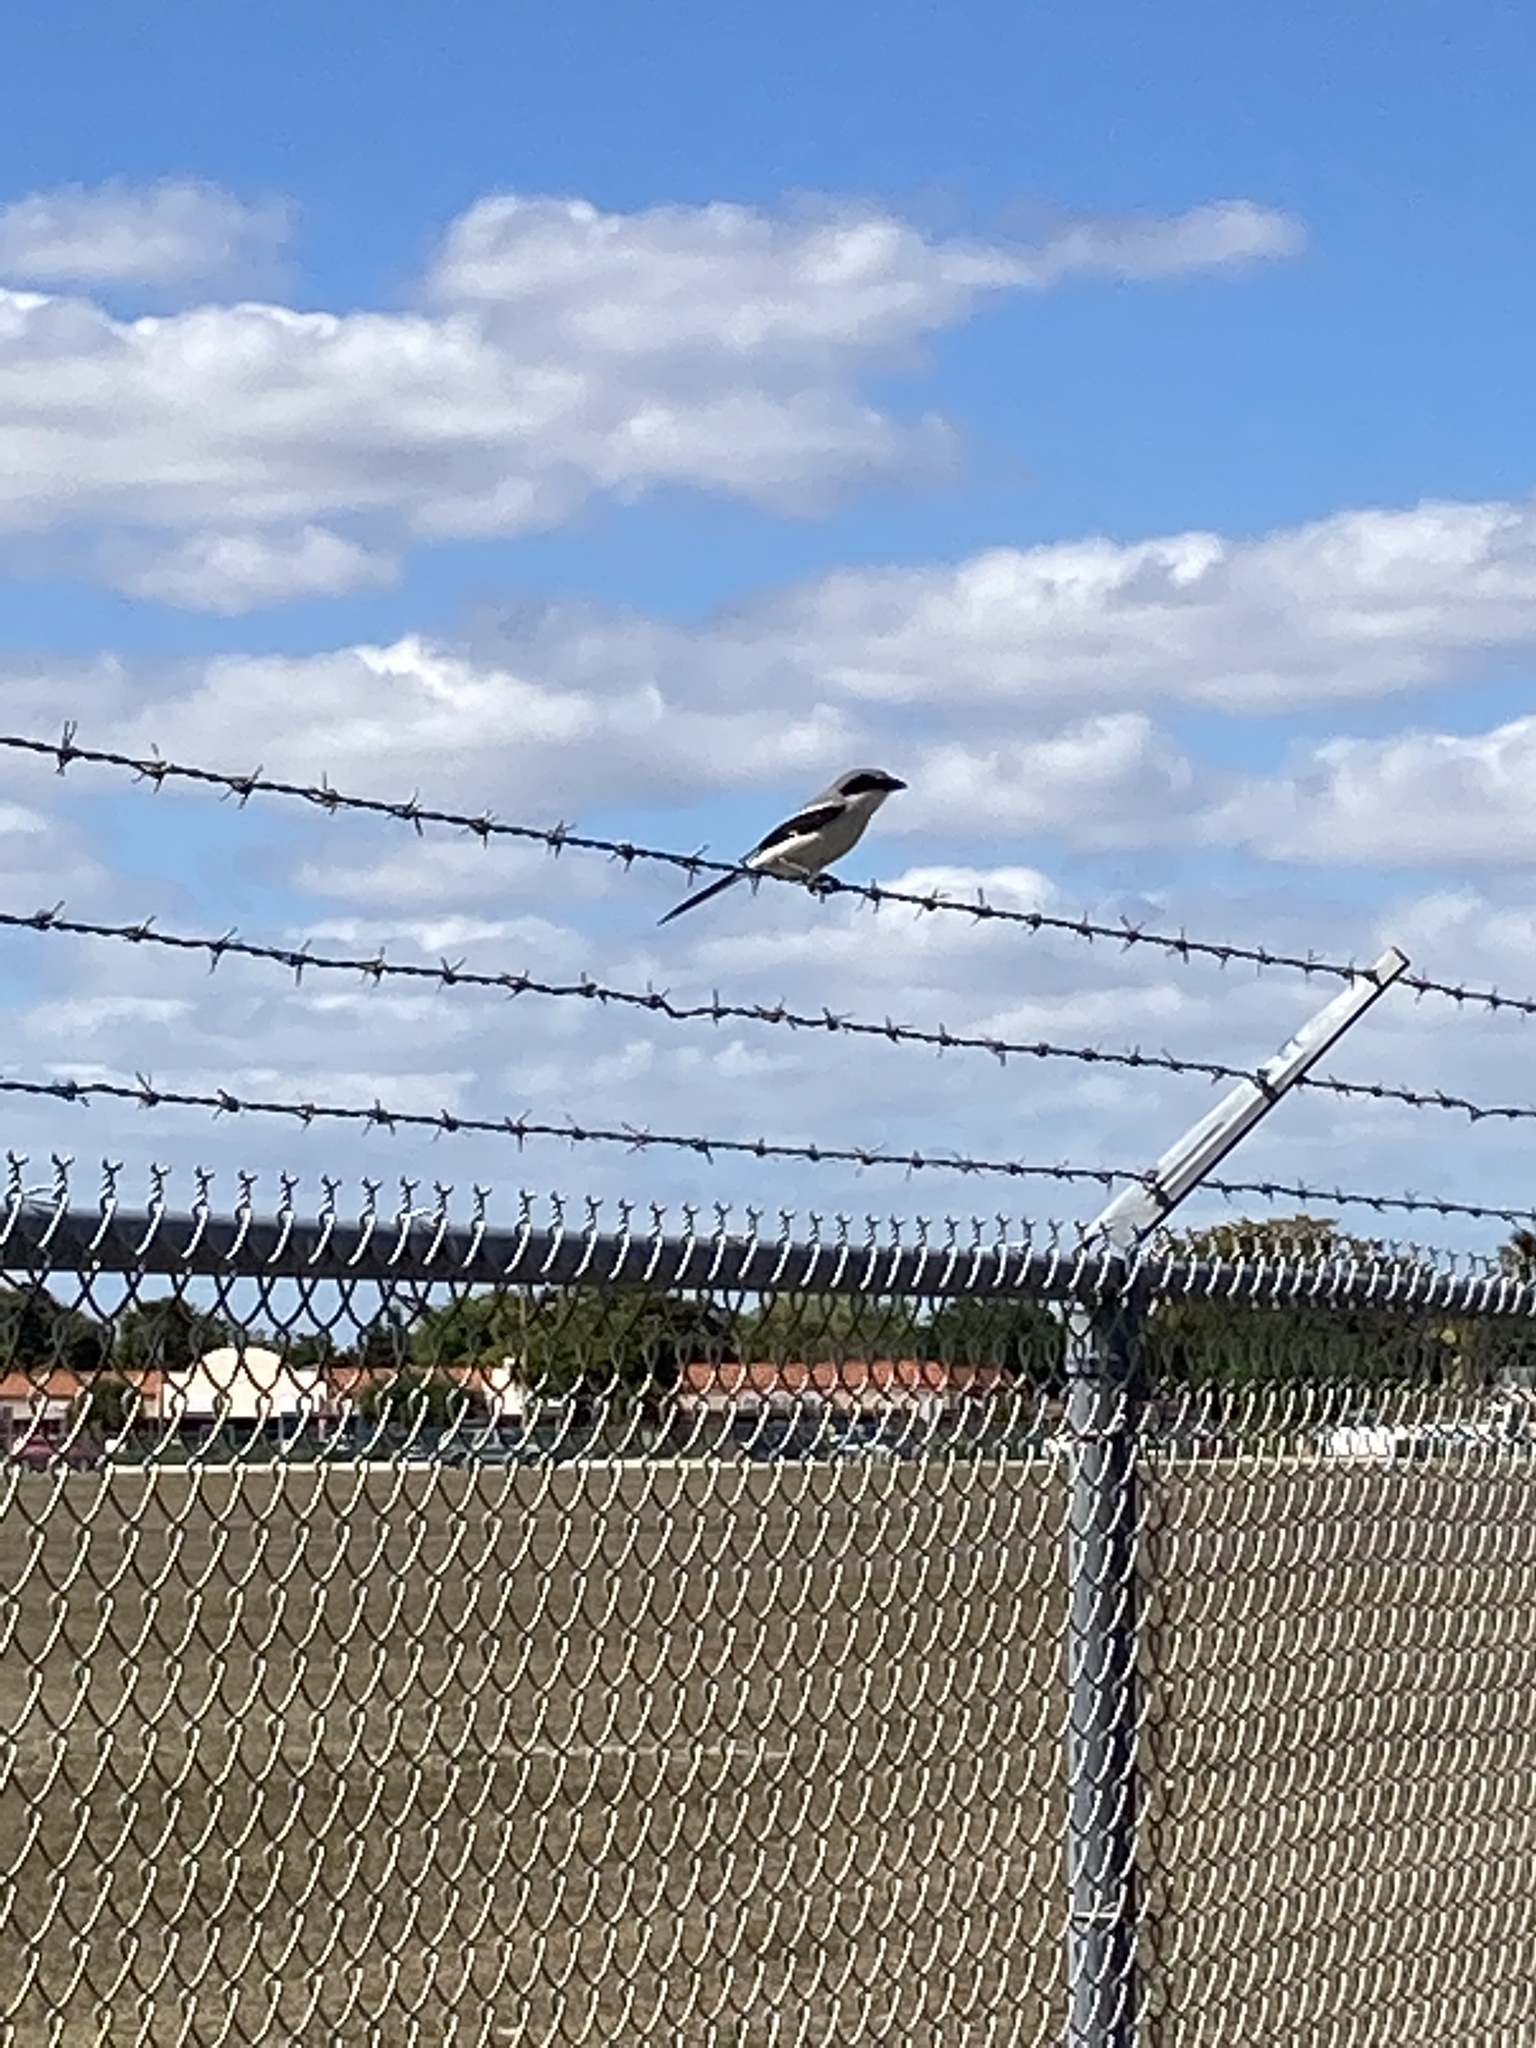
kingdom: Animalia
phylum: Chordata
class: Aves
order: Passeriformes
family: Laniidae
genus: Lanius
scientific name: Lanius ludovicianus
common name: Loggerhead shrike
